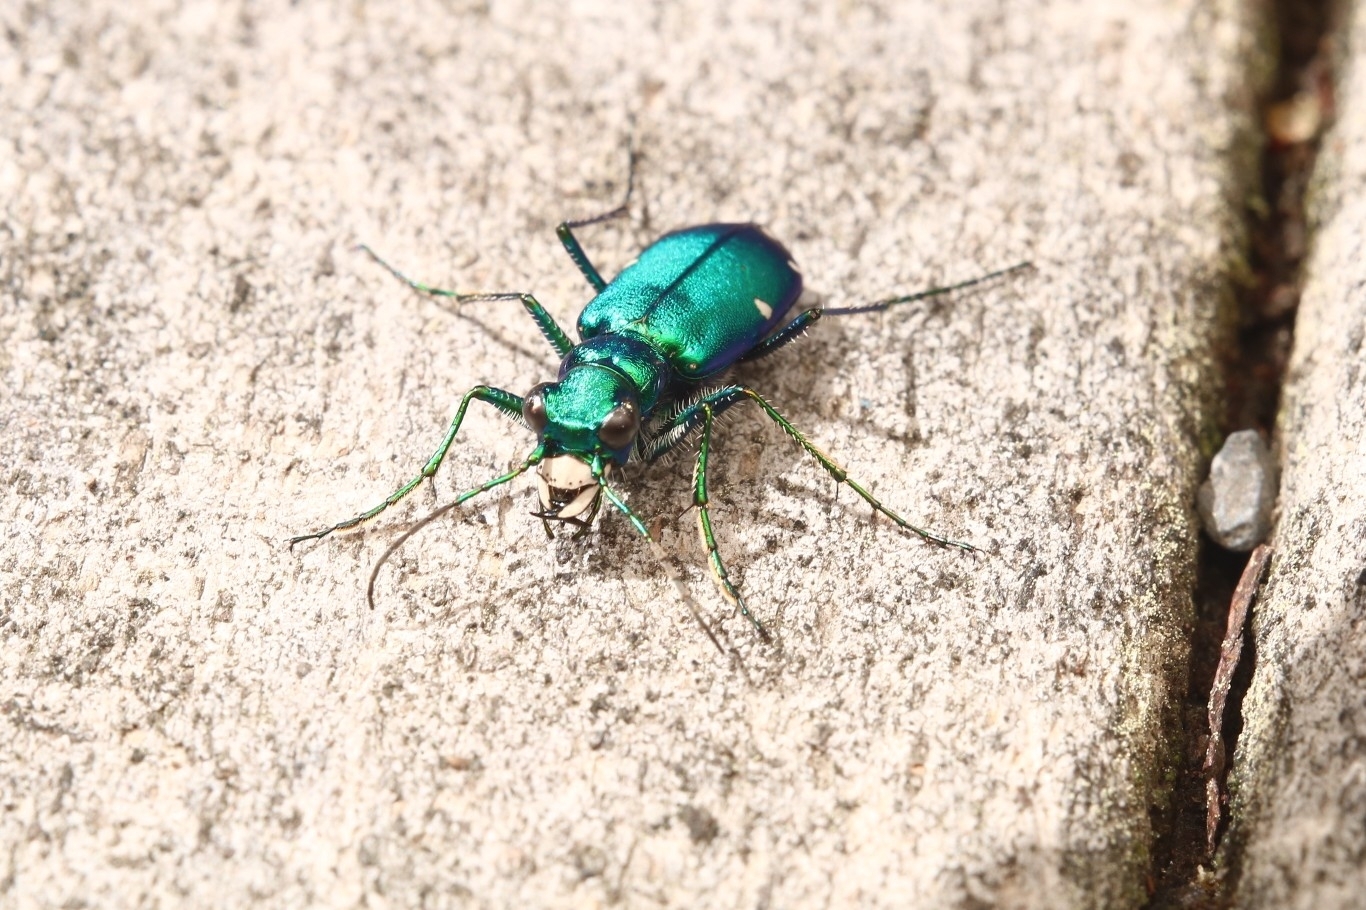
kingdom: Animalia
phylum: Arthropoda
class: Insecta
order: Coleoptera
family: Carabidae
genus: Cicindela
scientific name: Cicindela sexguttata
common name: Six-spotted tiger beetle
